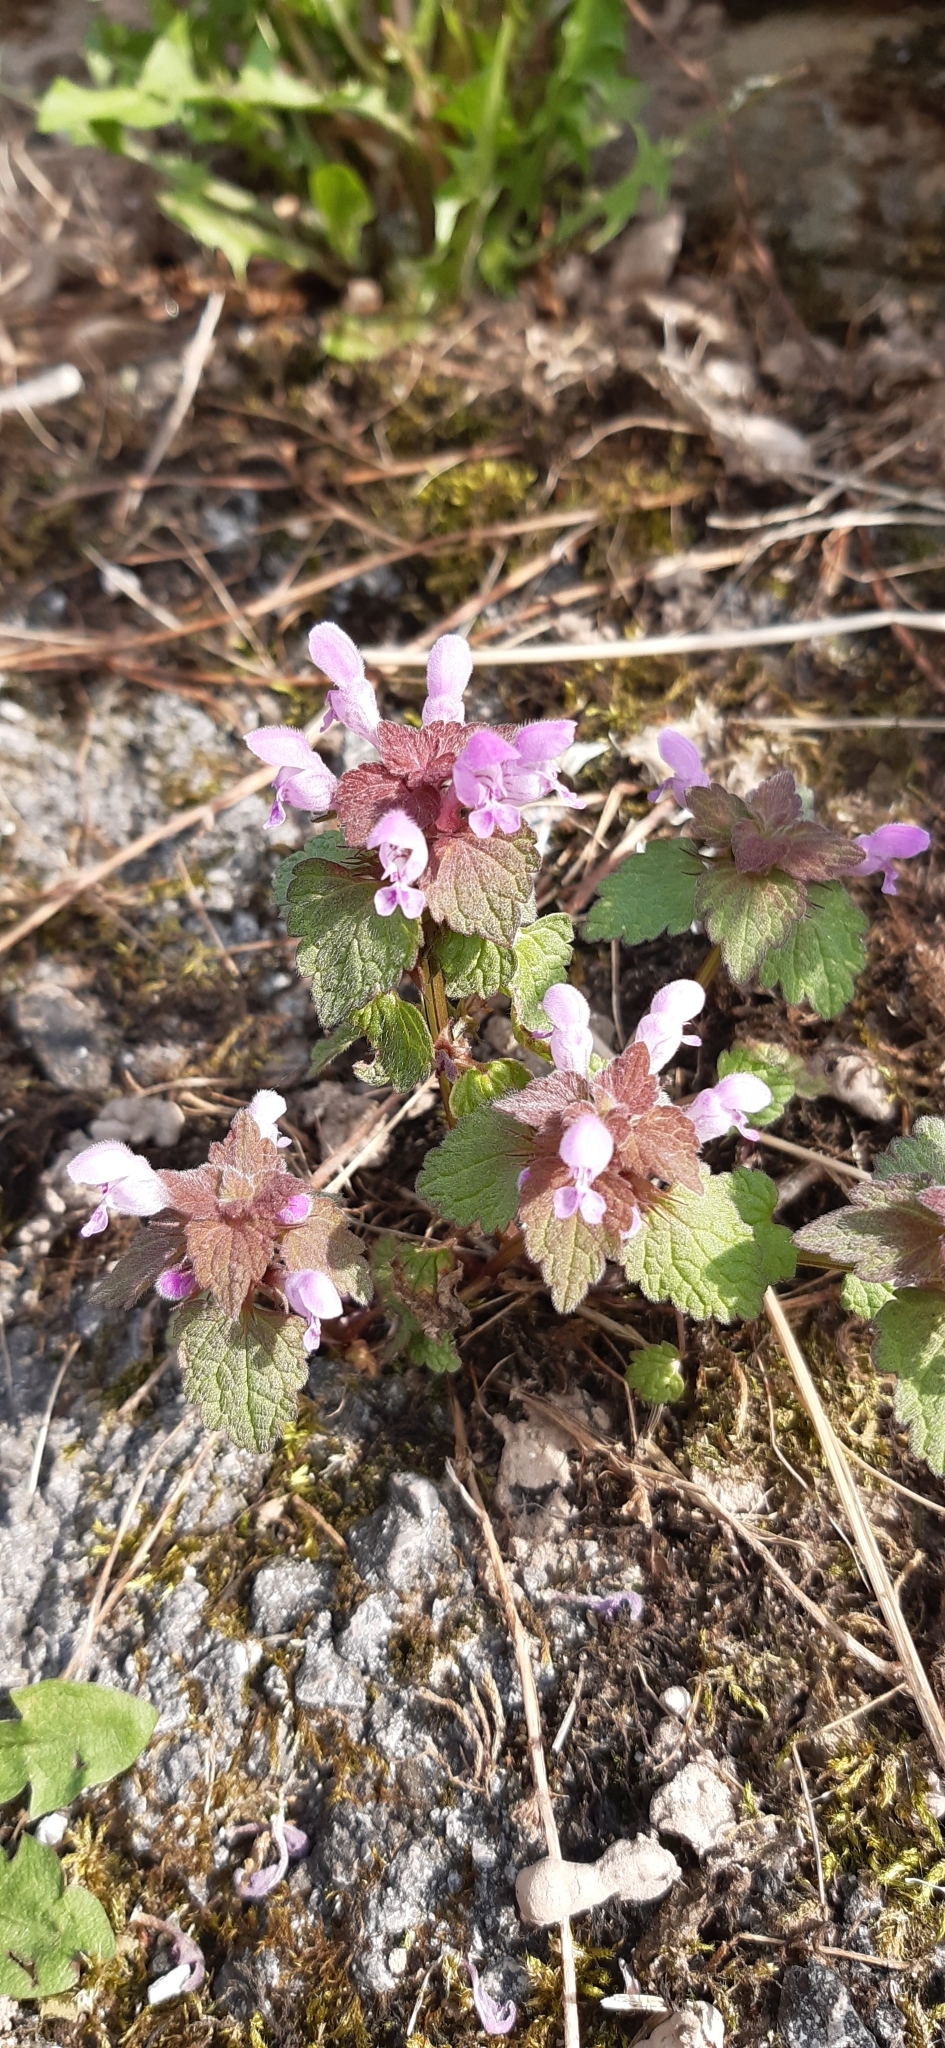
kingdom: Plantae
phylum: Tracheophyta
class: Magnoliopsida
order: Lamiales
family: Lamiaceae
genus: Lamium
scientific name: Lamium purpureum
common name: Red dead-nettle
